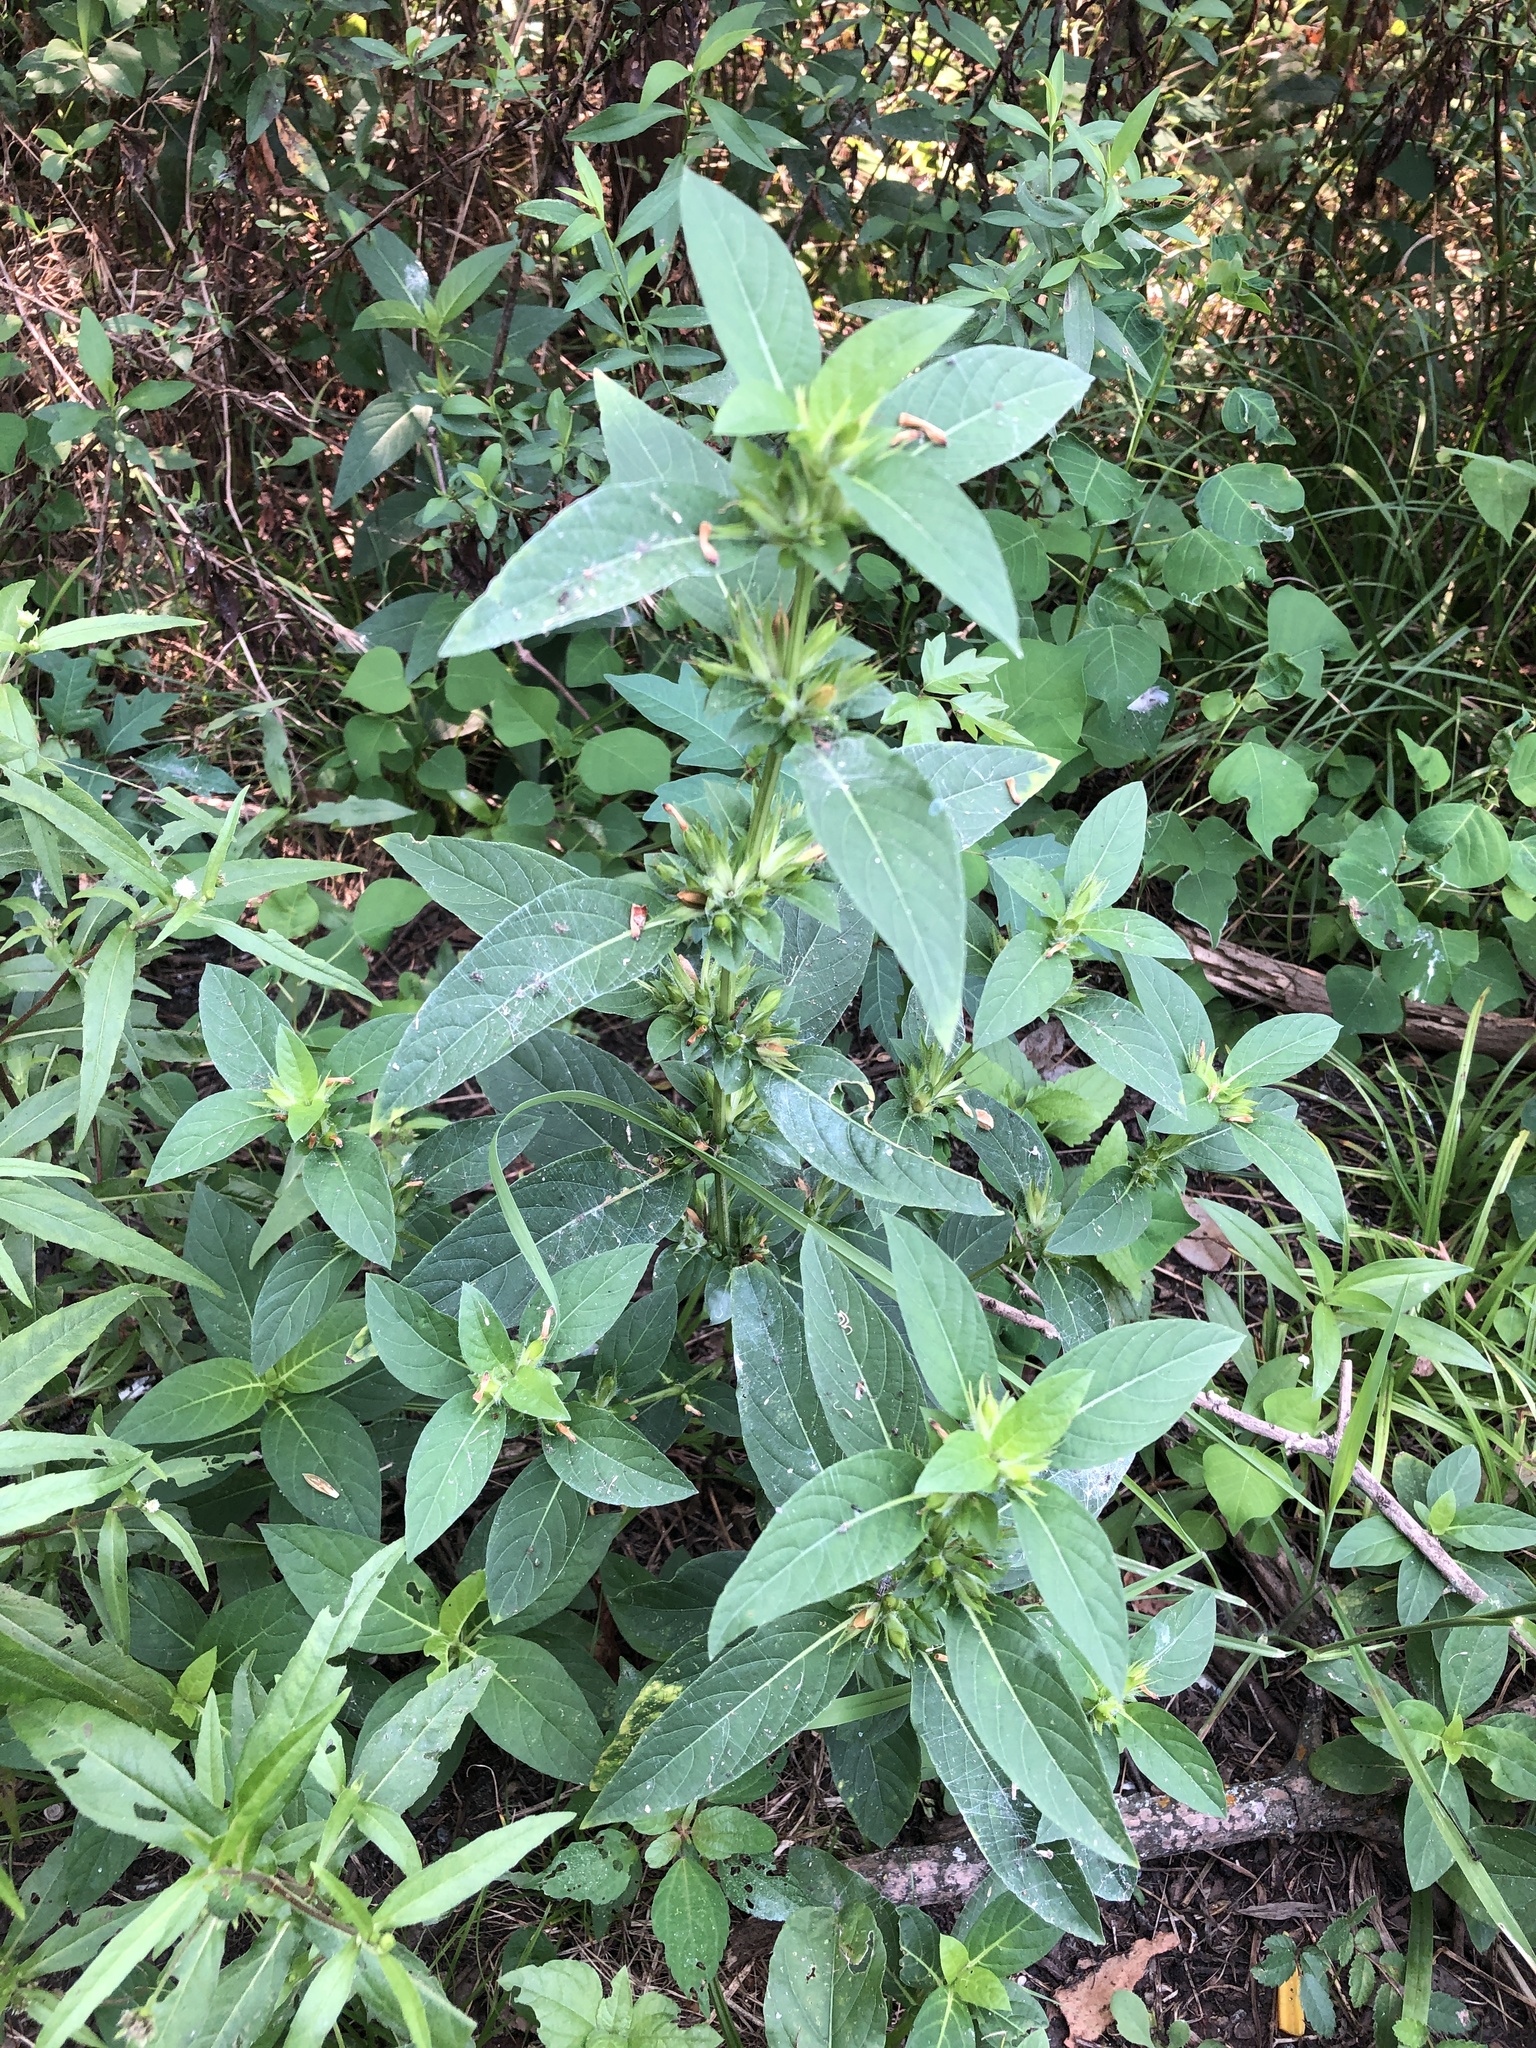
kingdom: Plantae
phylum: Tracheophyta
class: Magnoliopsida
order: Lamiales
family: Acanthaceae
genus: Ruellia
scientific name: Ruellia strepens
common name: Limestone wild petunia
